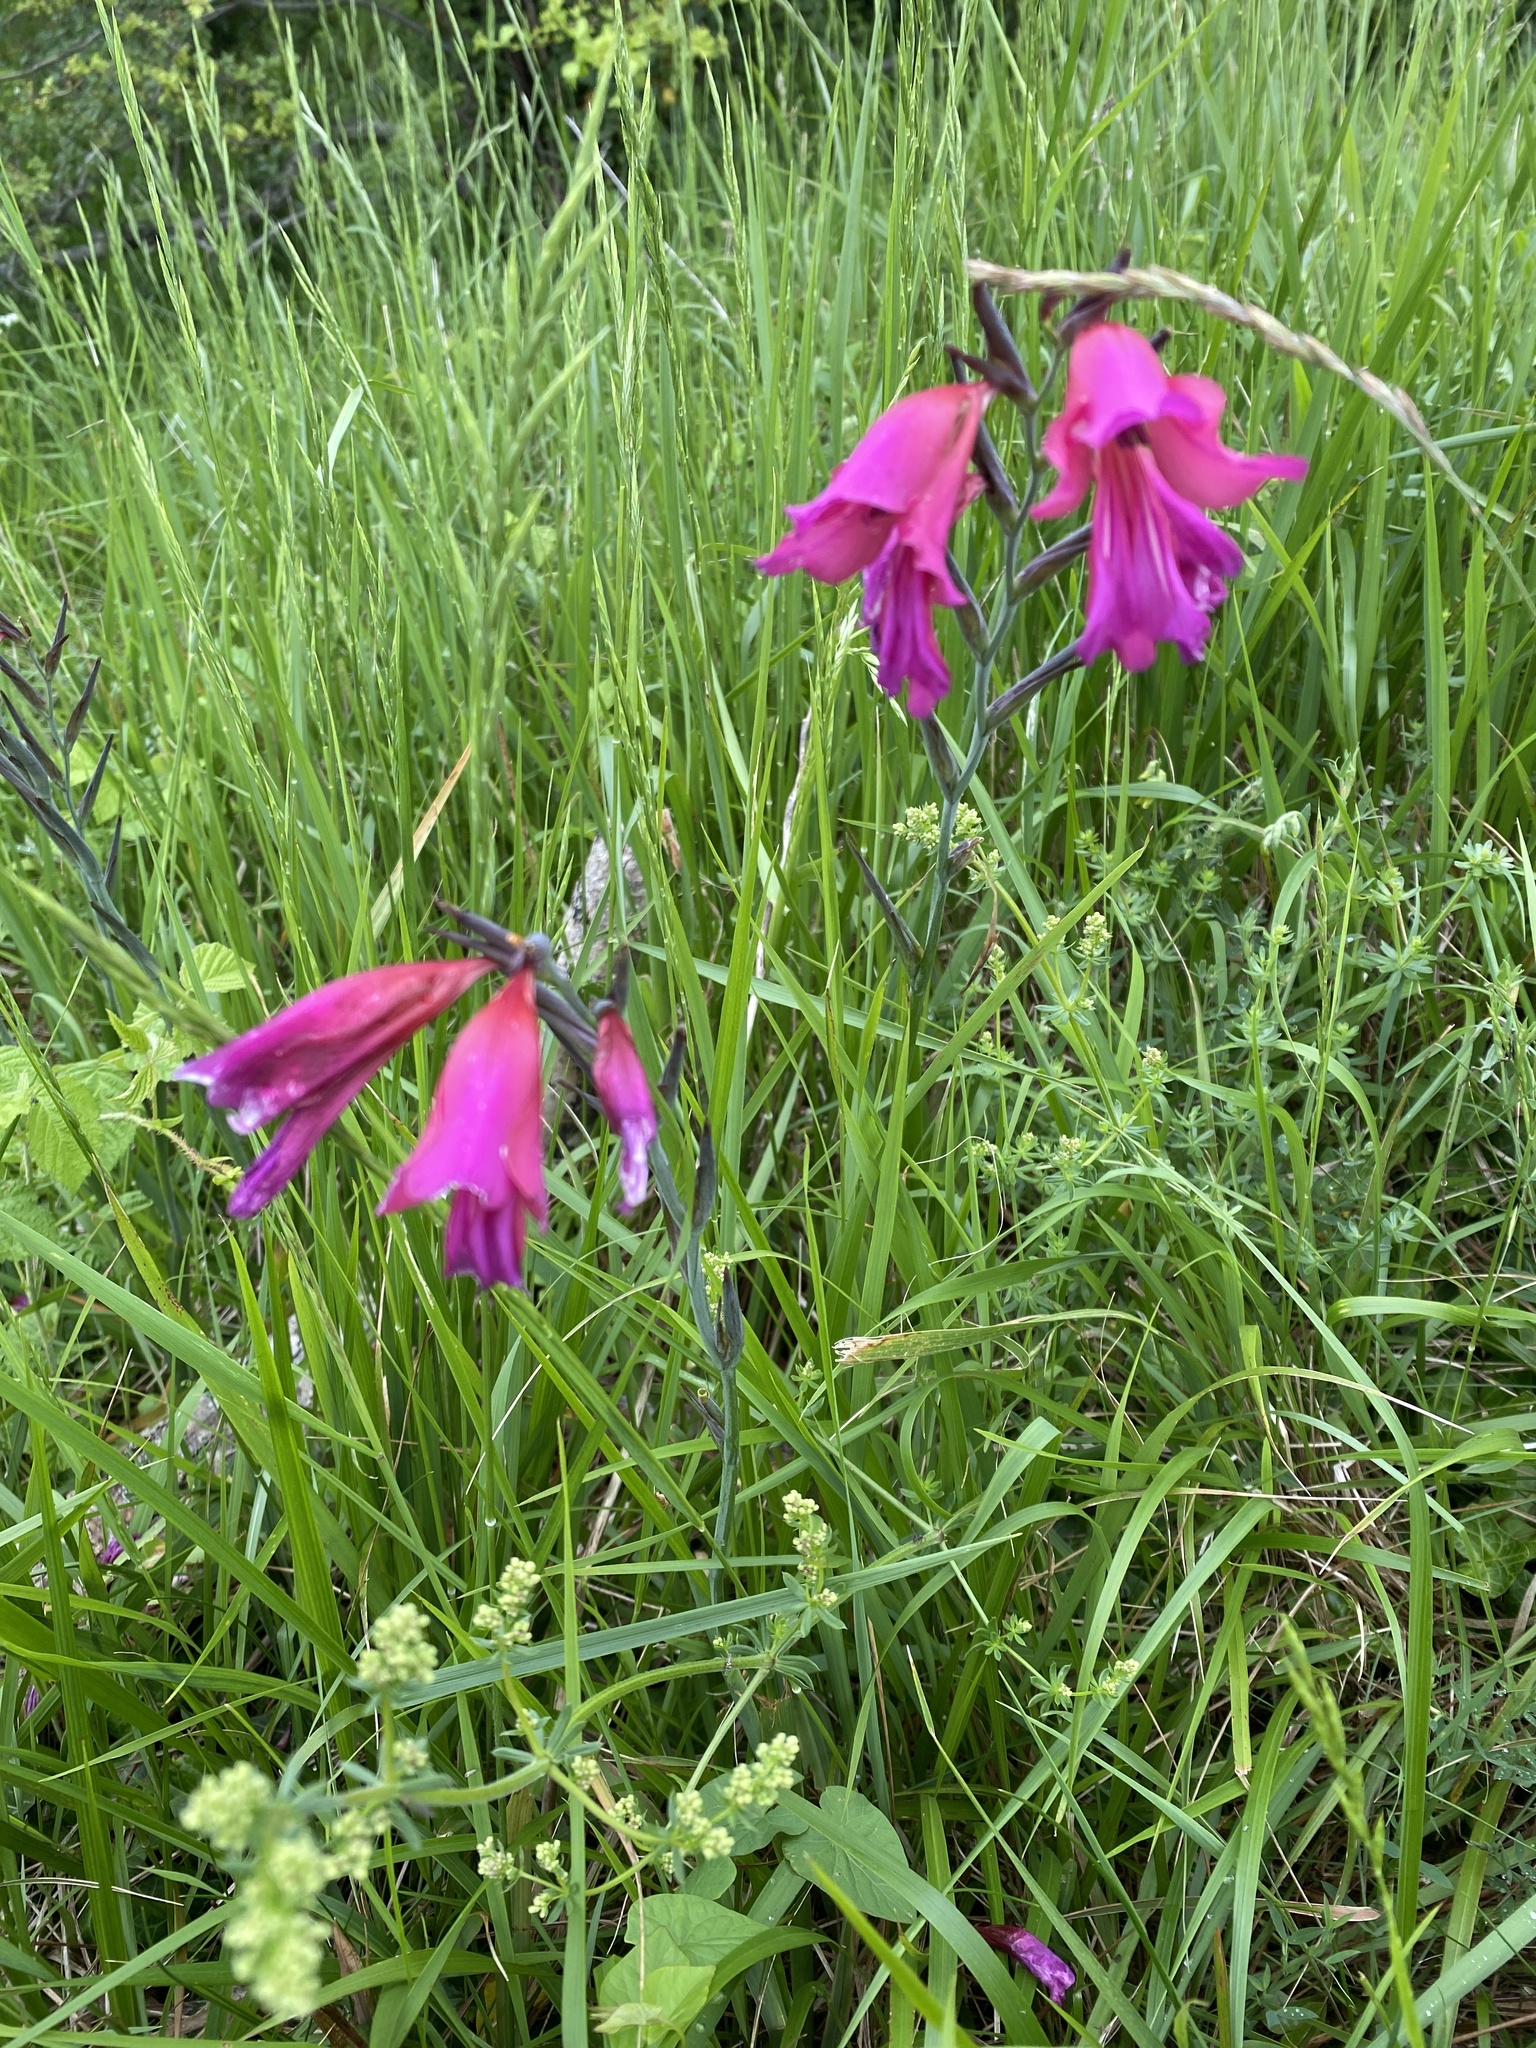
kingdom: Plantae
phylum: Tracheophyta
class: Liliopsida
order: Asparagales
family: Iridaceae
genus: Gladiolus
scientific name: Gladiolus byzantinus
